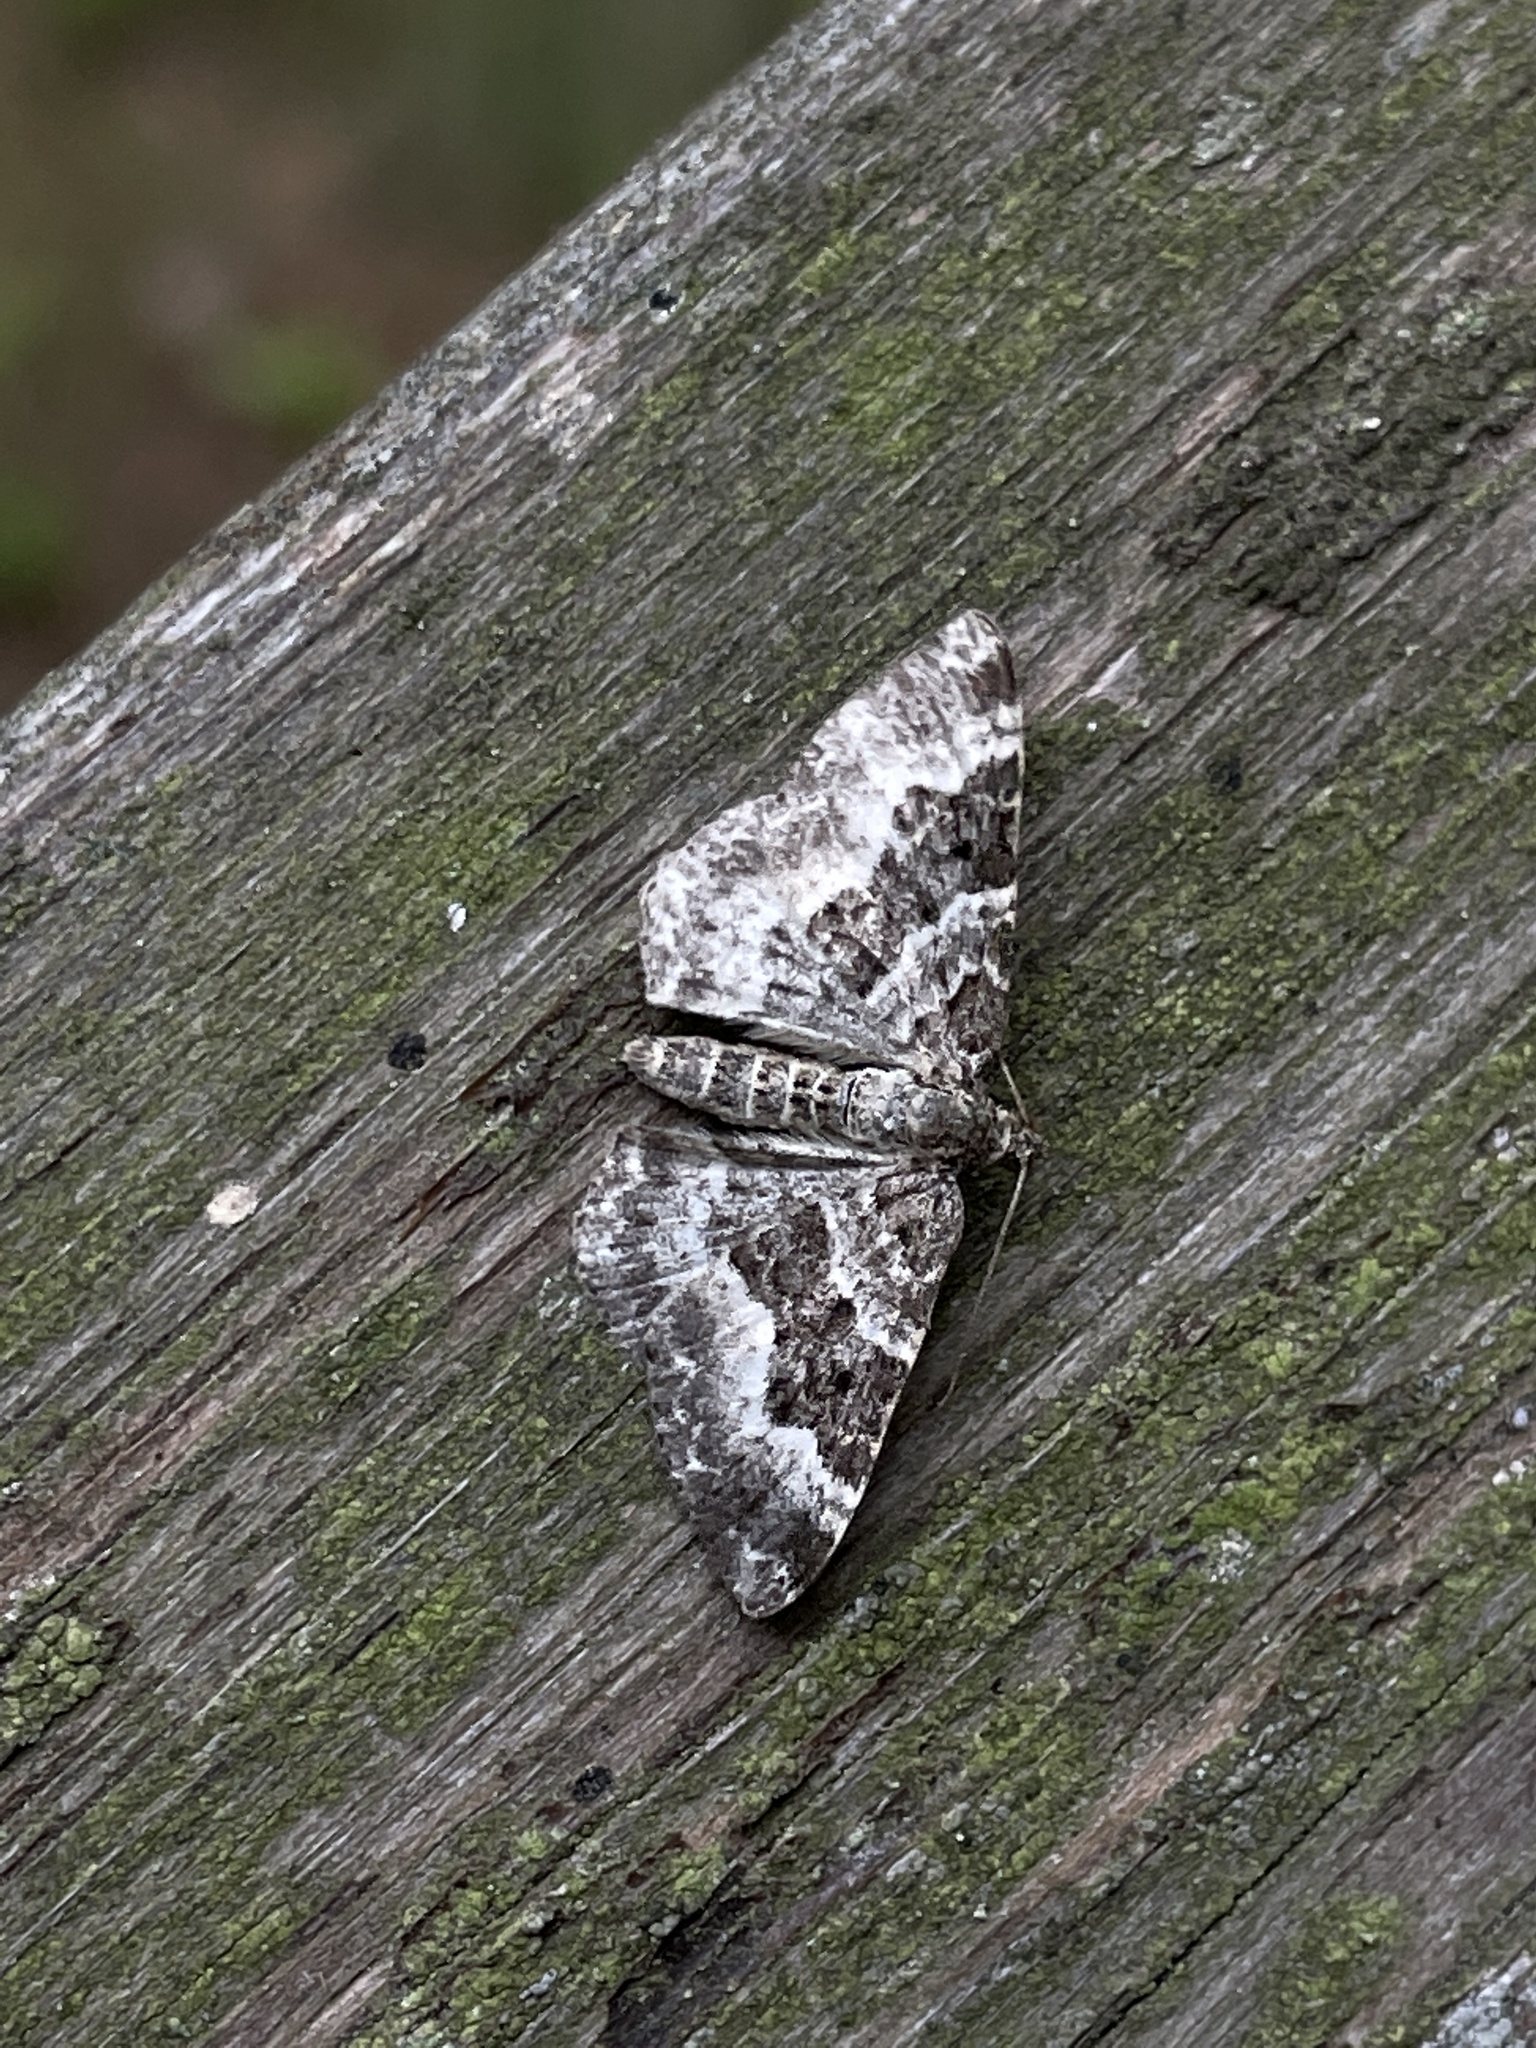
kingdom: Animalia
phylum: Arthropoda
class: Insecta
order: Lepidoptera
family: Geometridae
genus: Epirrhoe
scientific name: Epirrhoe alternata
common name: Common carpet
